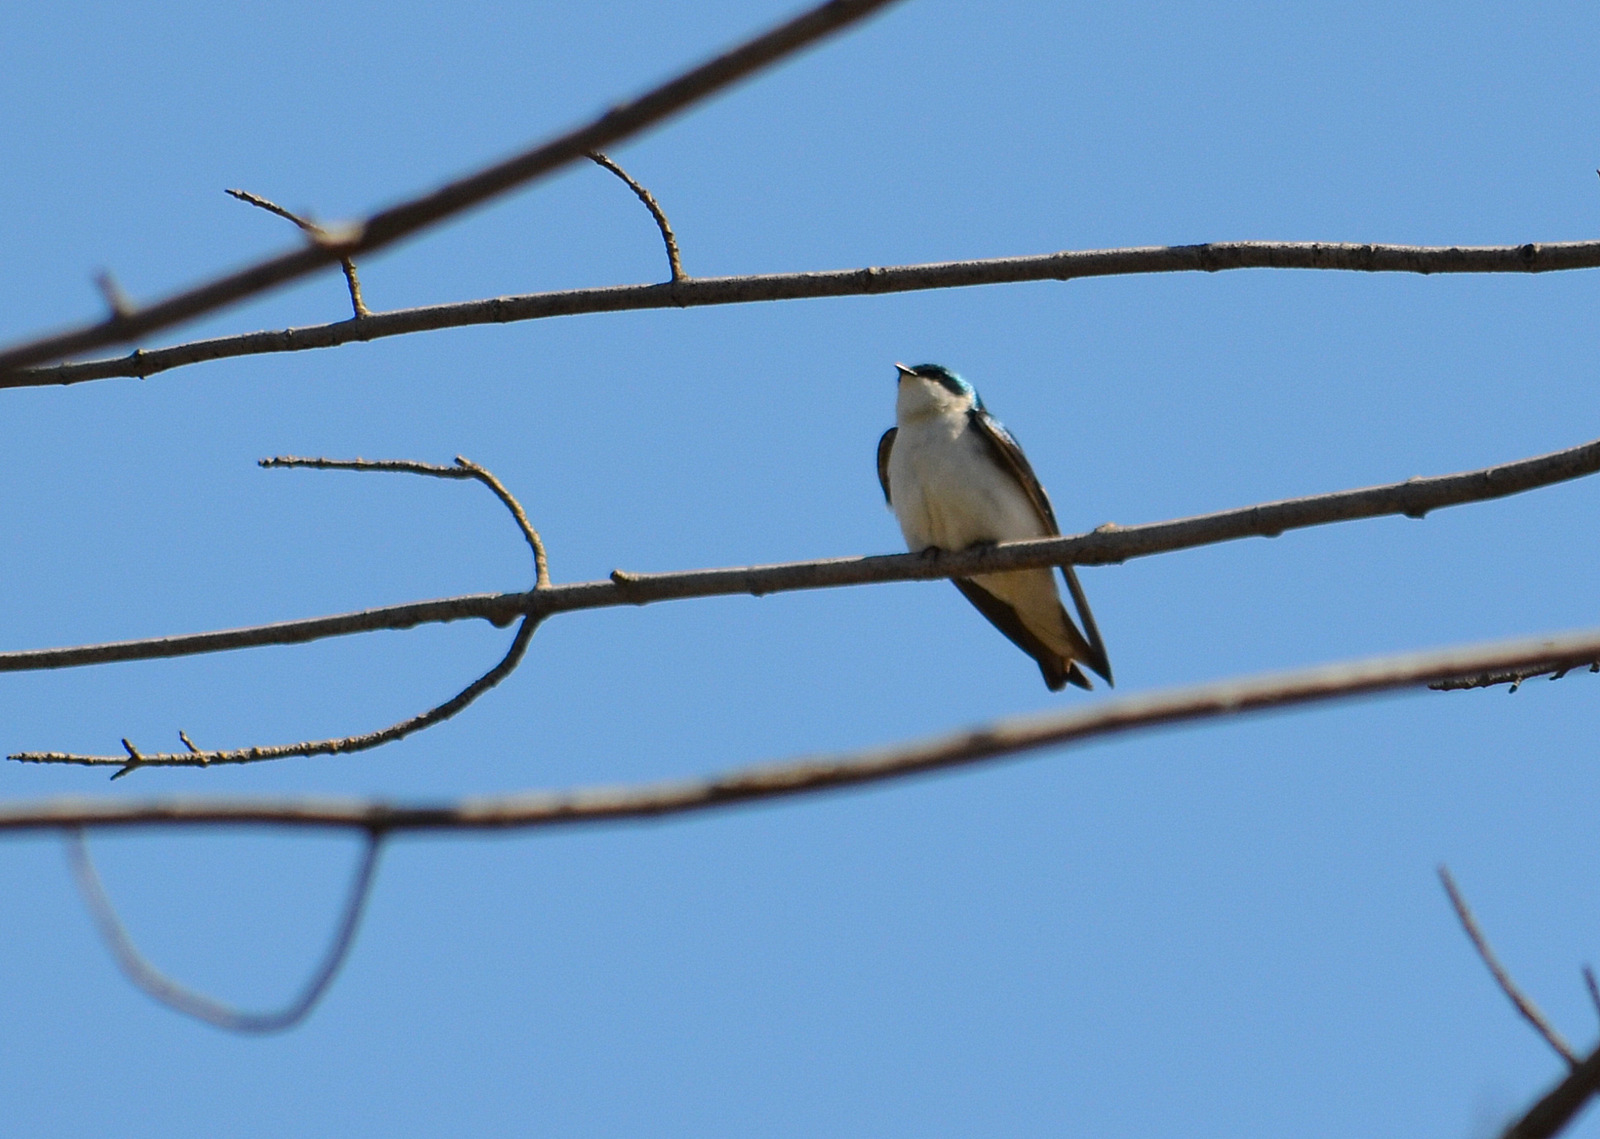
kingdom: Animalia
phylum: Chordata
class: Aves
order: Passeriformes
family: Hirundinidae
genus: Tachycineta
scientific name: Tachycineta bicolor
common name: Tree swallow
